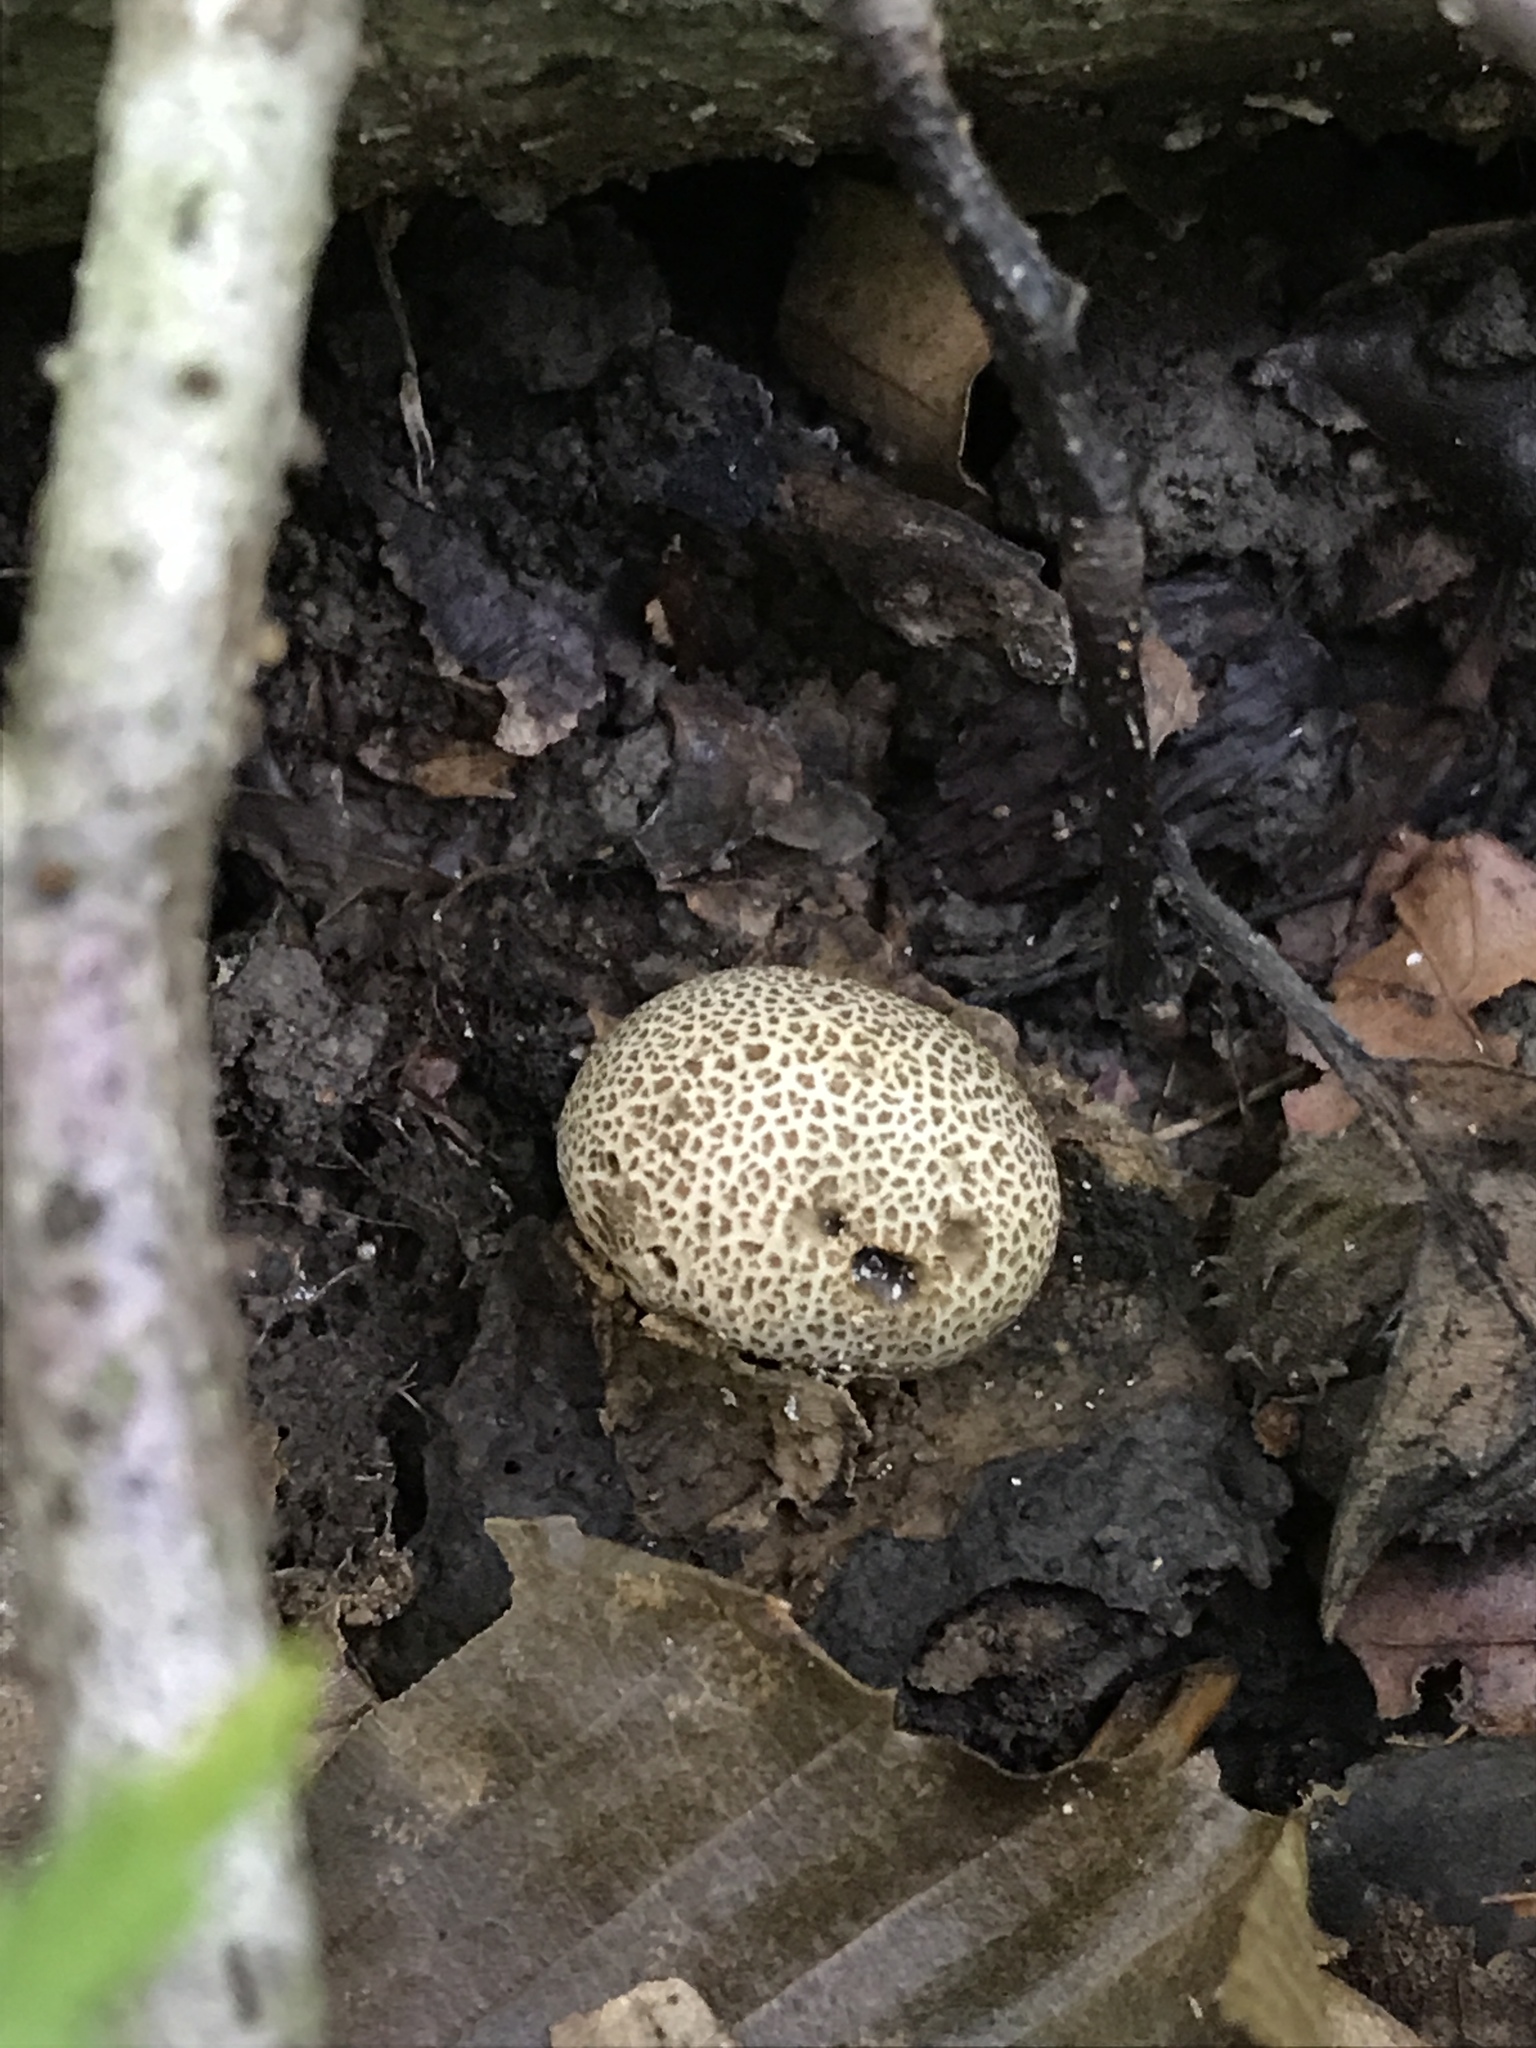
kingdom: Fungi
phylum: Basidiomycota
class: Agaricomycetes
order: Boletales
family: Sclerodermataceae
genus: Scleroderma
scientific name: Scleroderma areolatum
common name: Leopard earthball
